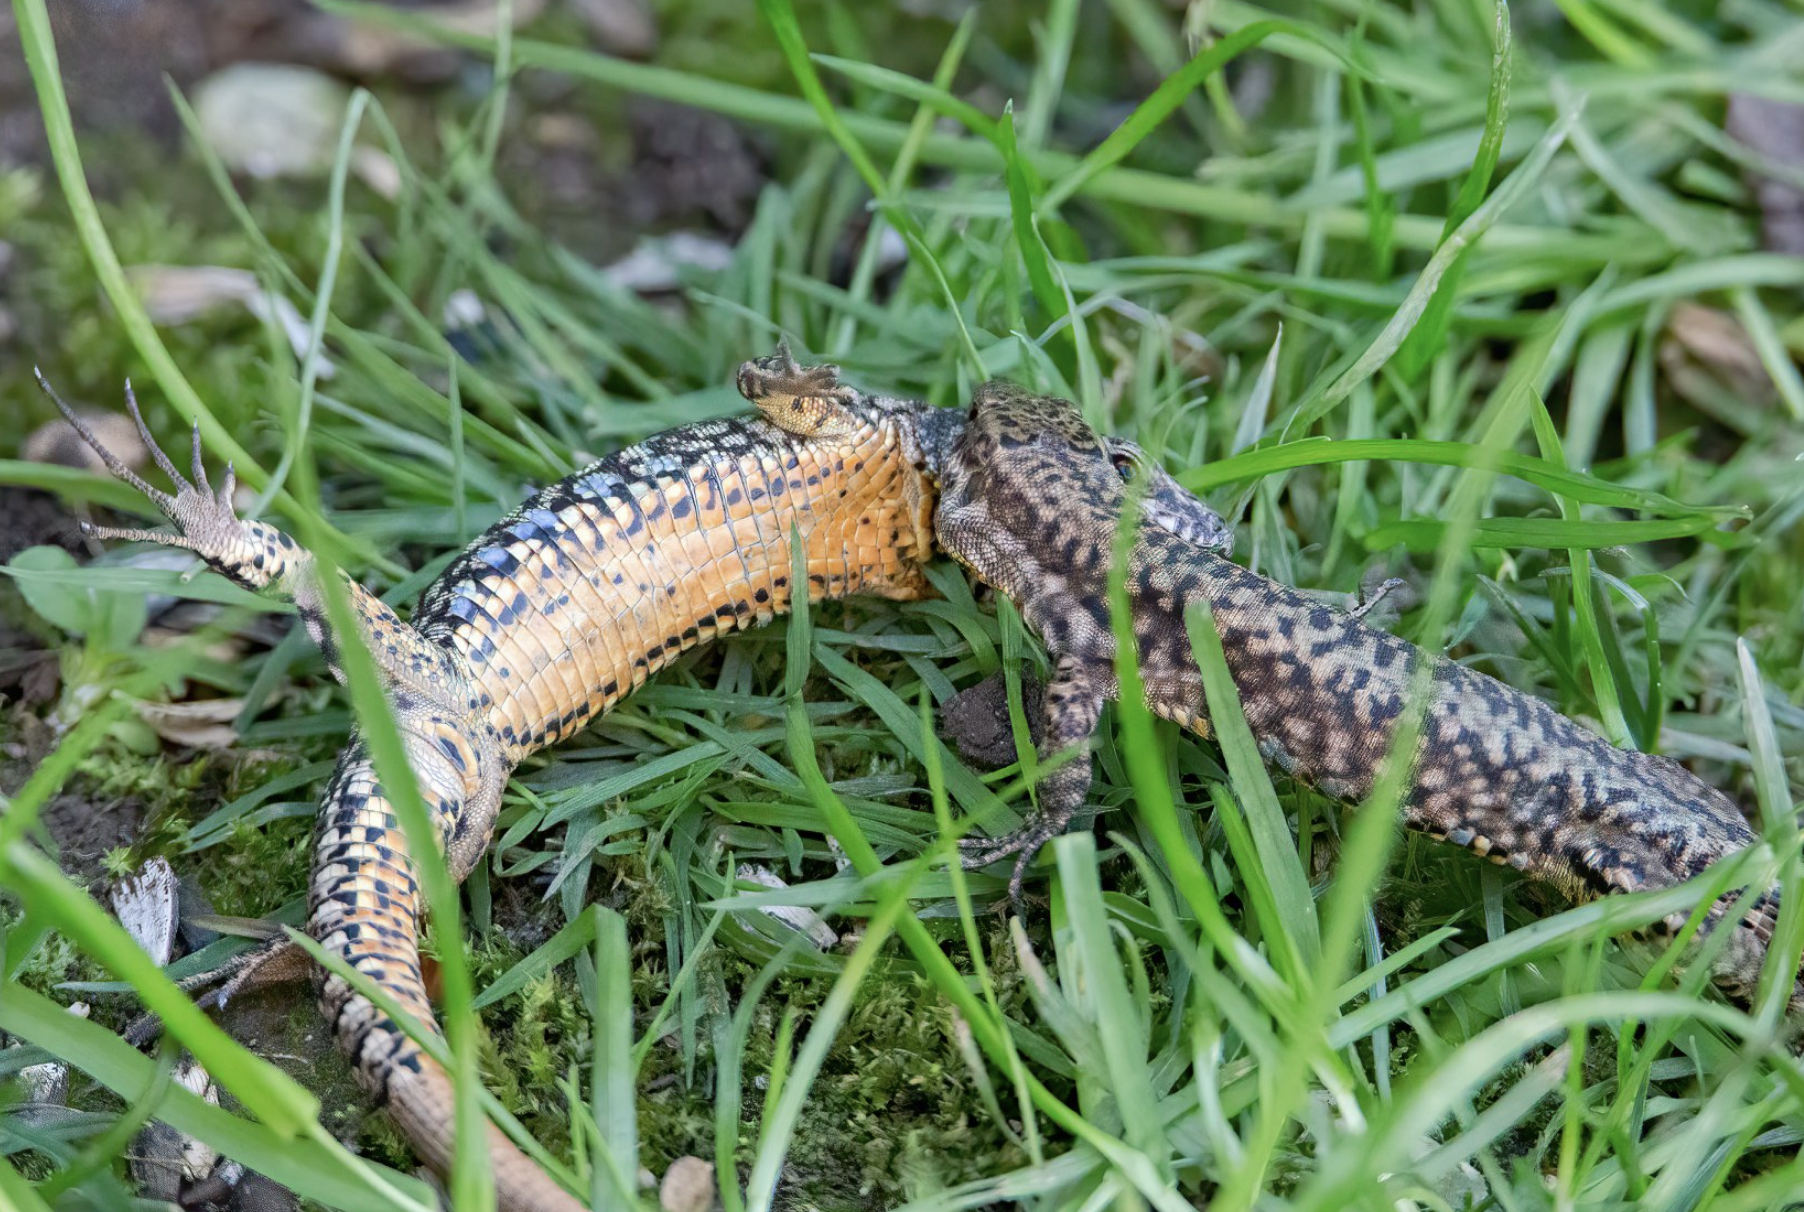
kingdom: Animalia
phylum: Chordata
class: Squamata
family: Lacertidae
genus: Podarcis
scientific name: Podarcis muralis
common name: Common wall lizard
